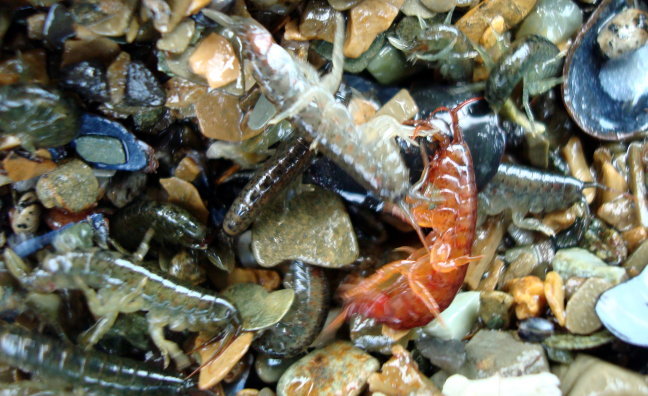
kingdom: Animalia
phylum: Arthropoda
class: Malacostraca
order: Amphipoda
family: Gammaridae
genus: Gammarus
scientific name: Gammarus
